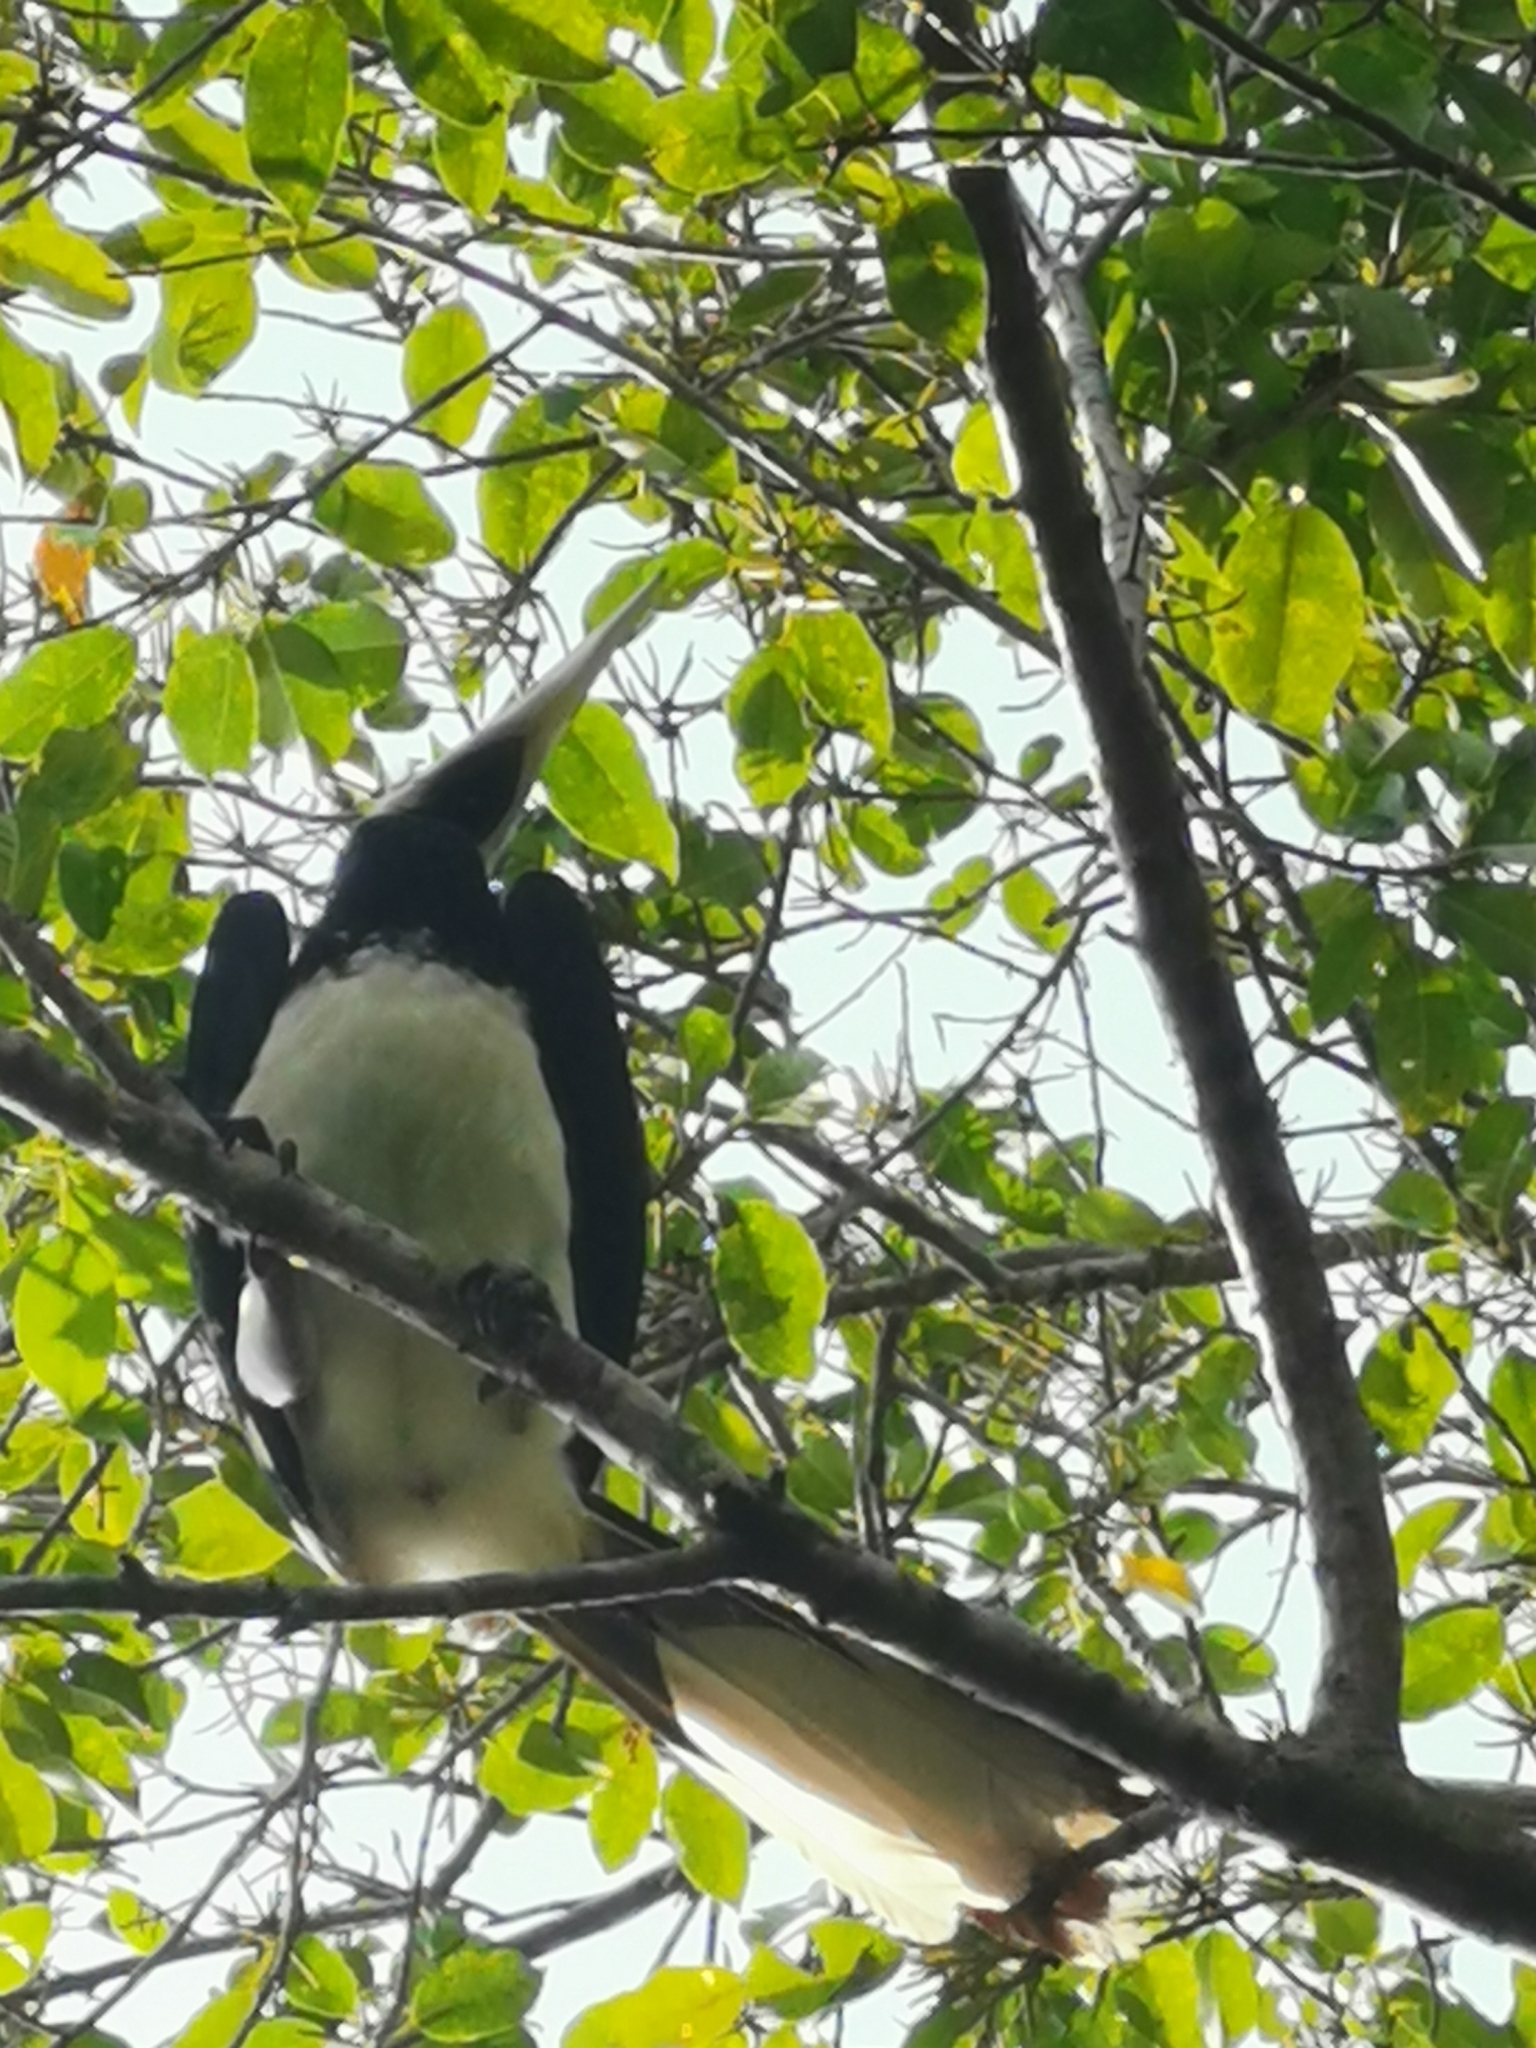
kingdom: Animalia
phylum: Chordata
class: Aves
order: Bucerotiformes
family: Bucerotidae
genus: Anthracoceros
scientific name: Anthracoceros albirostris
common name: Oriental pied-hornbill
